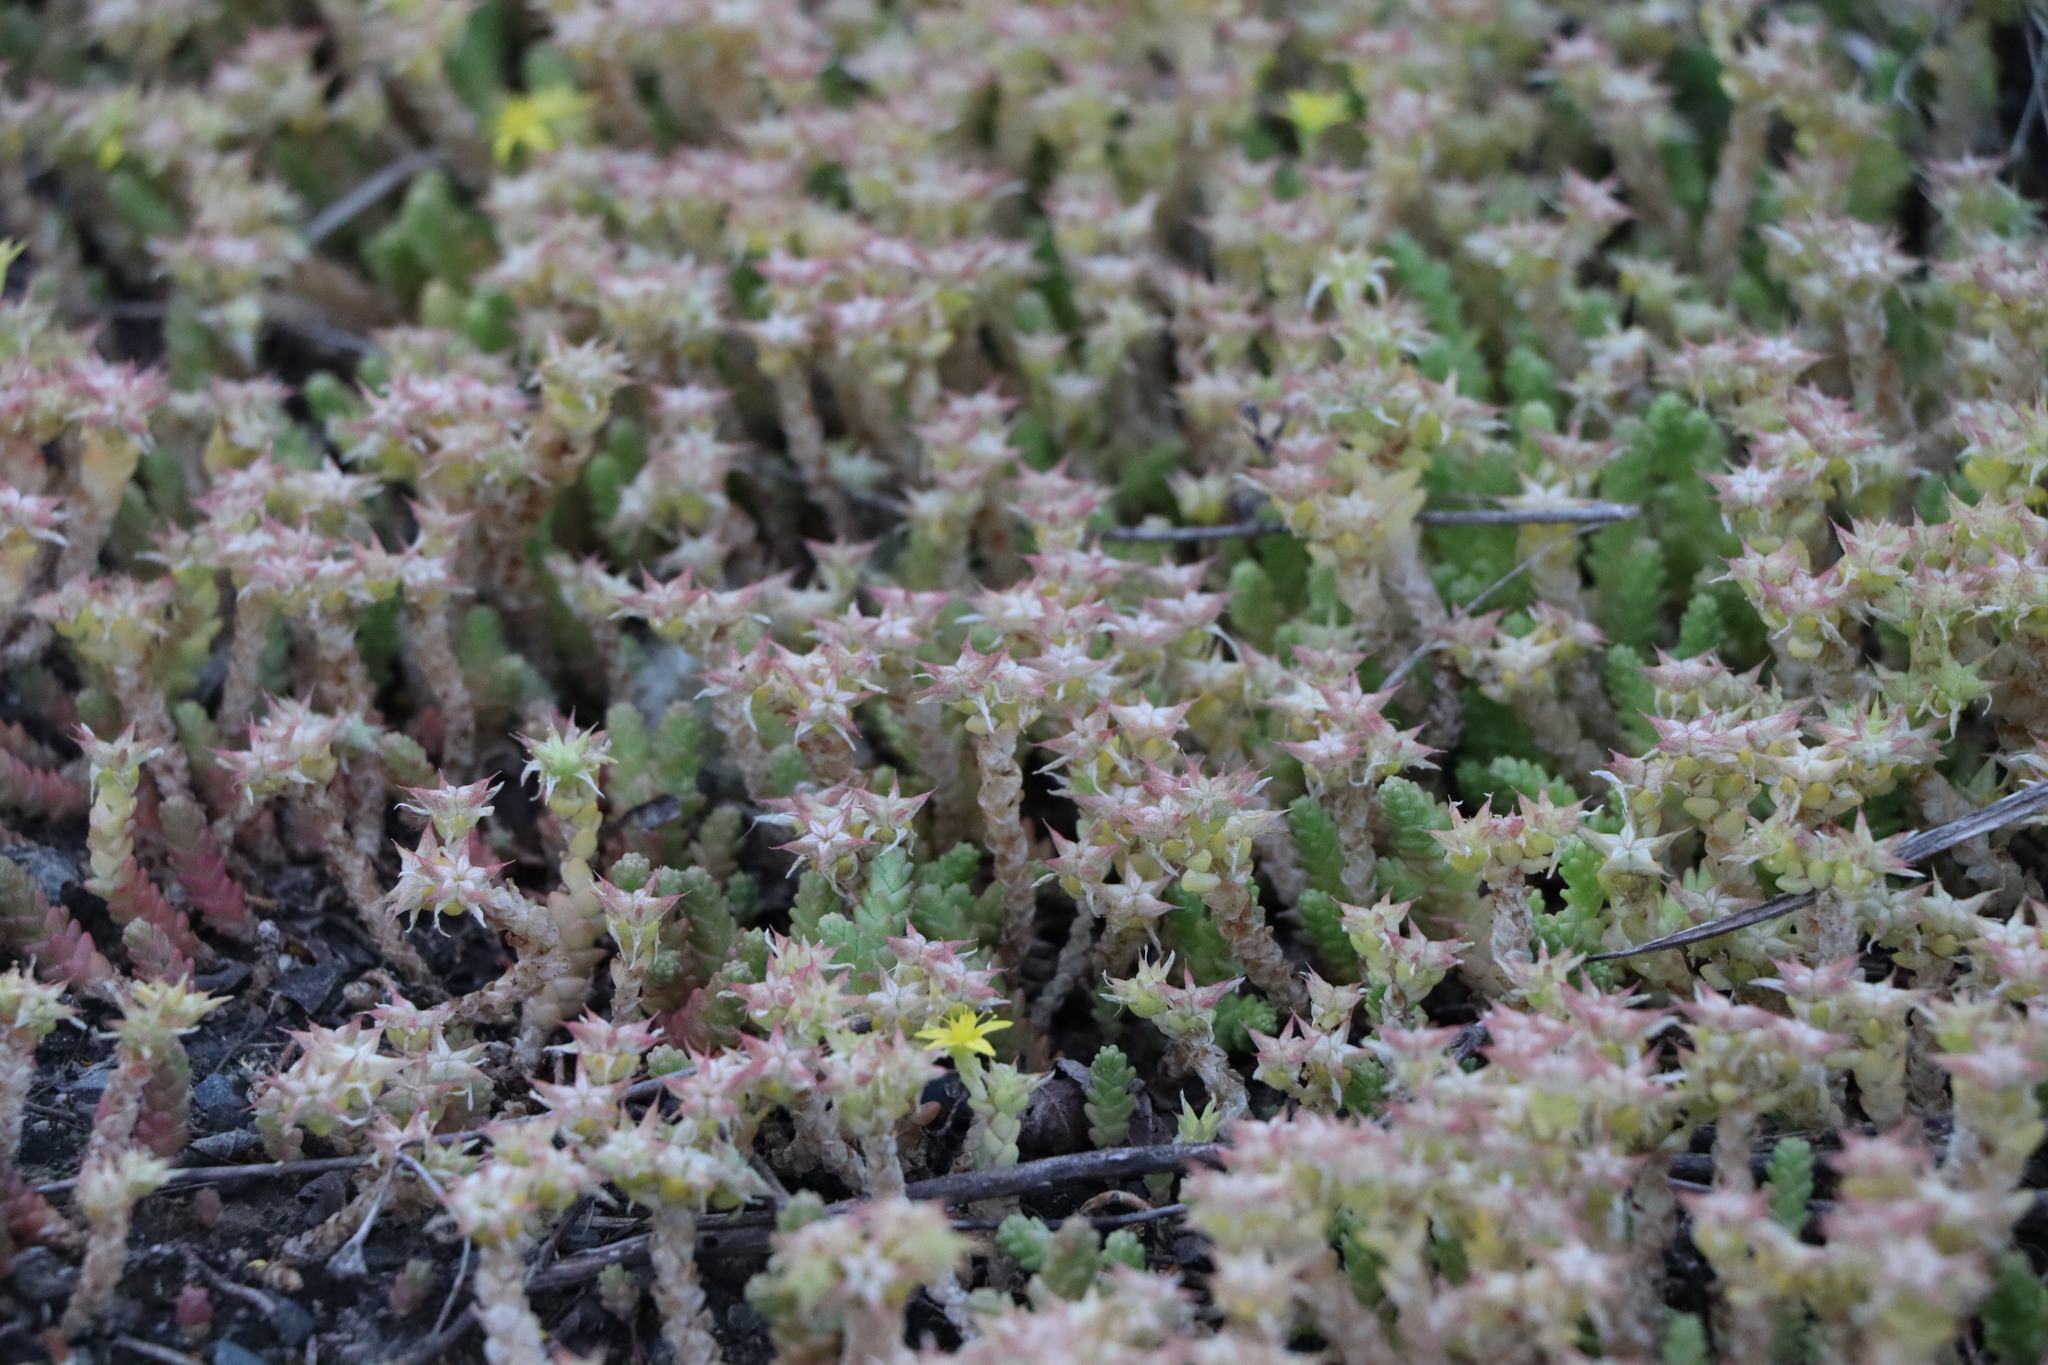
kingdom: Plantae
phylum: Tracheophyta
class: Magnoliopsida
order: Saxifragales
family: Crassulaceae
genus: Sedum
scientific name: Sedum acre
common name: Biting stonecrop
